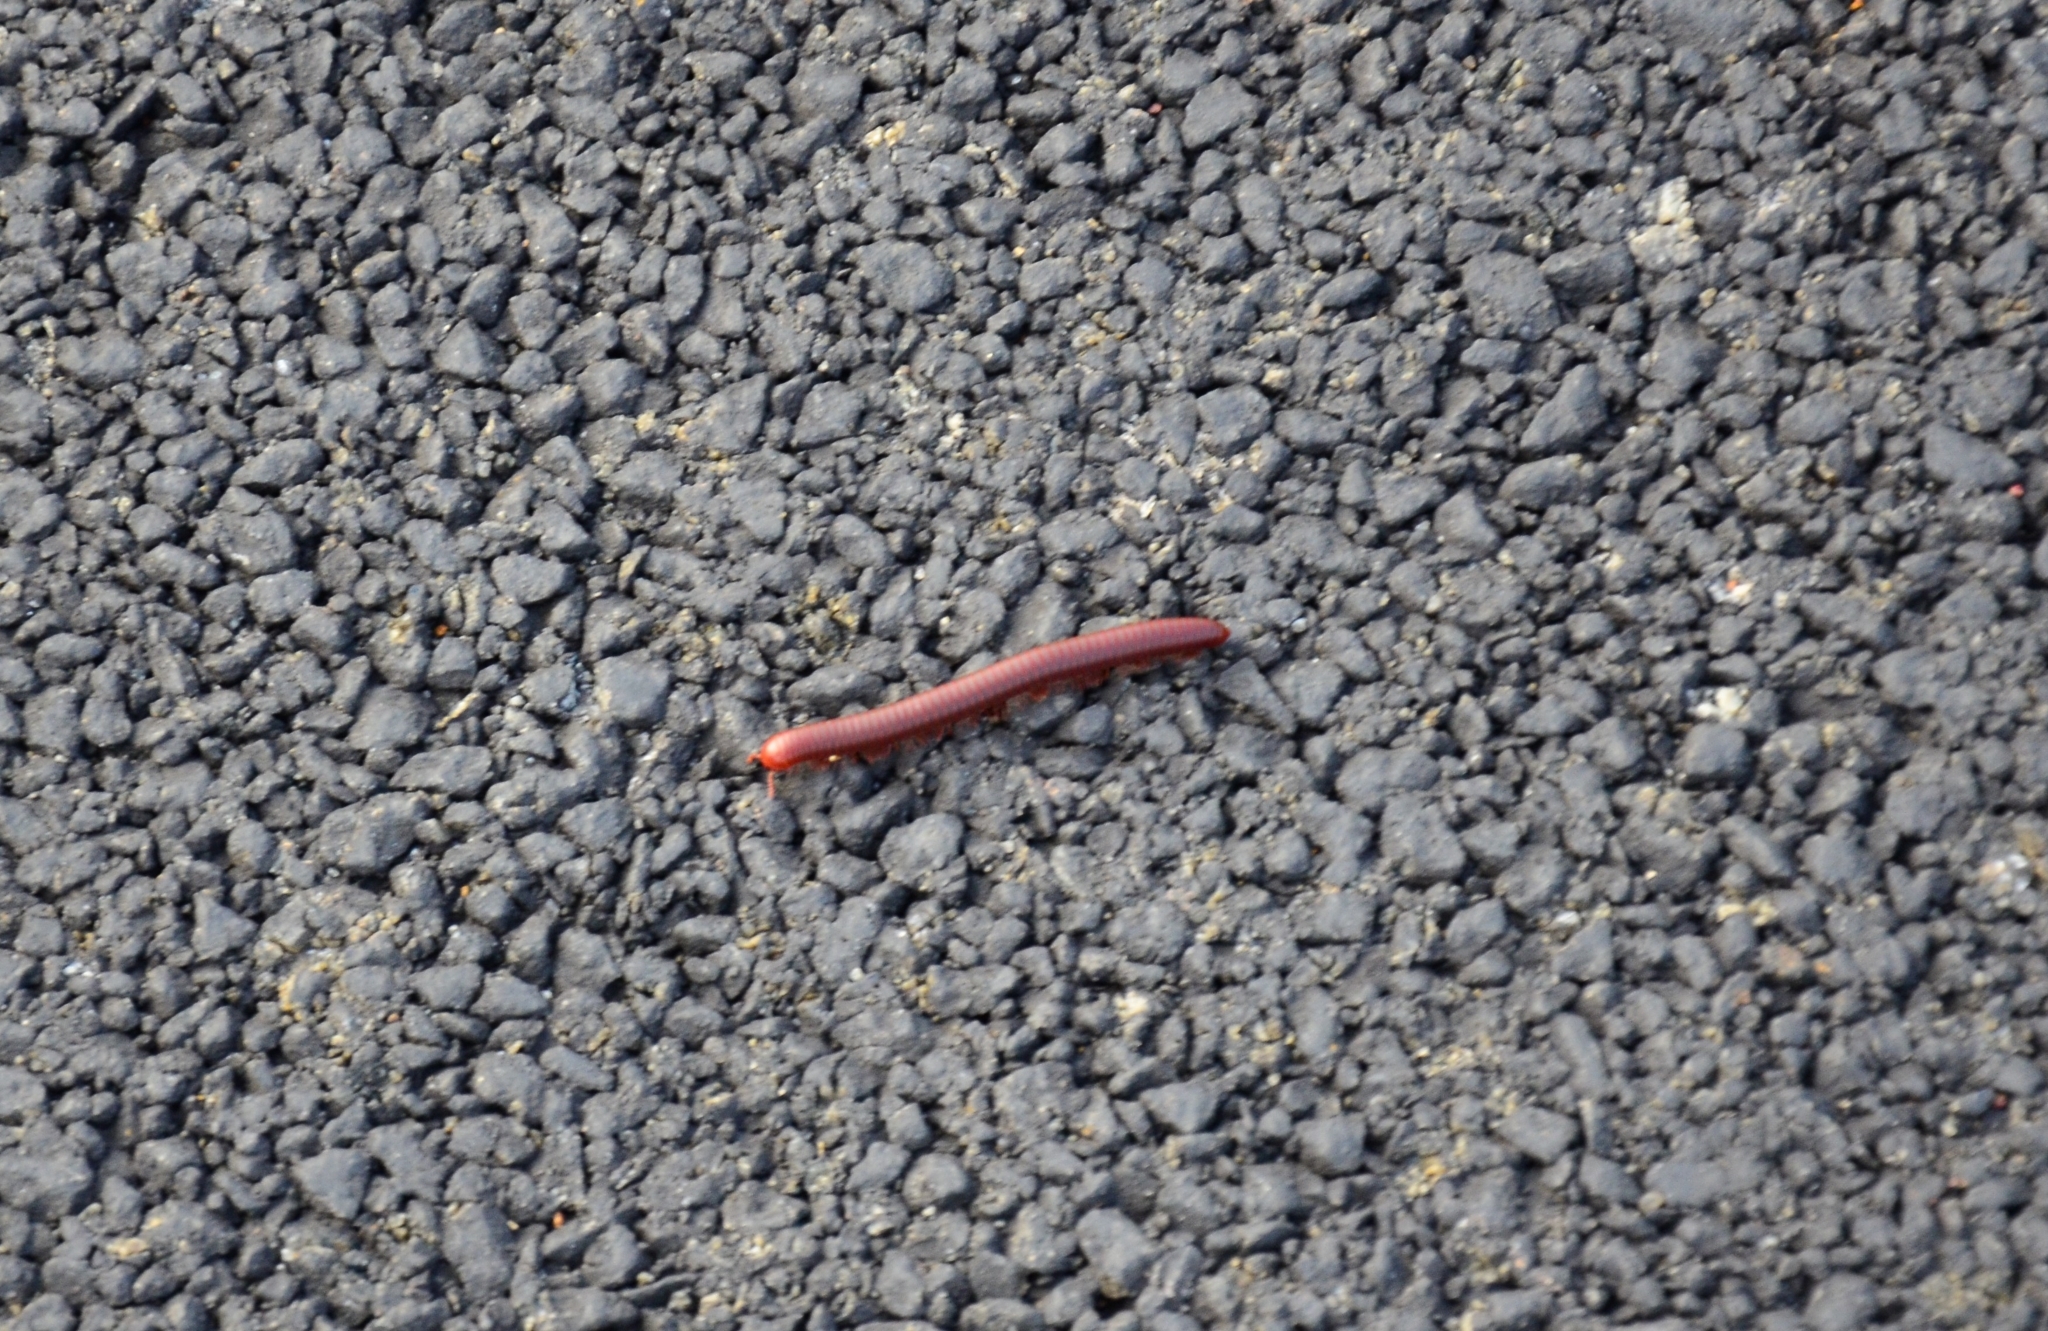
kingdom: Animalia
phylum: Arthropoda
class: Diplopoda
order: Spirobolida
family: Pachybolidae
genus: Trigoniulus
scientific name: Trigoniulus corallinus
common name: Millipede
